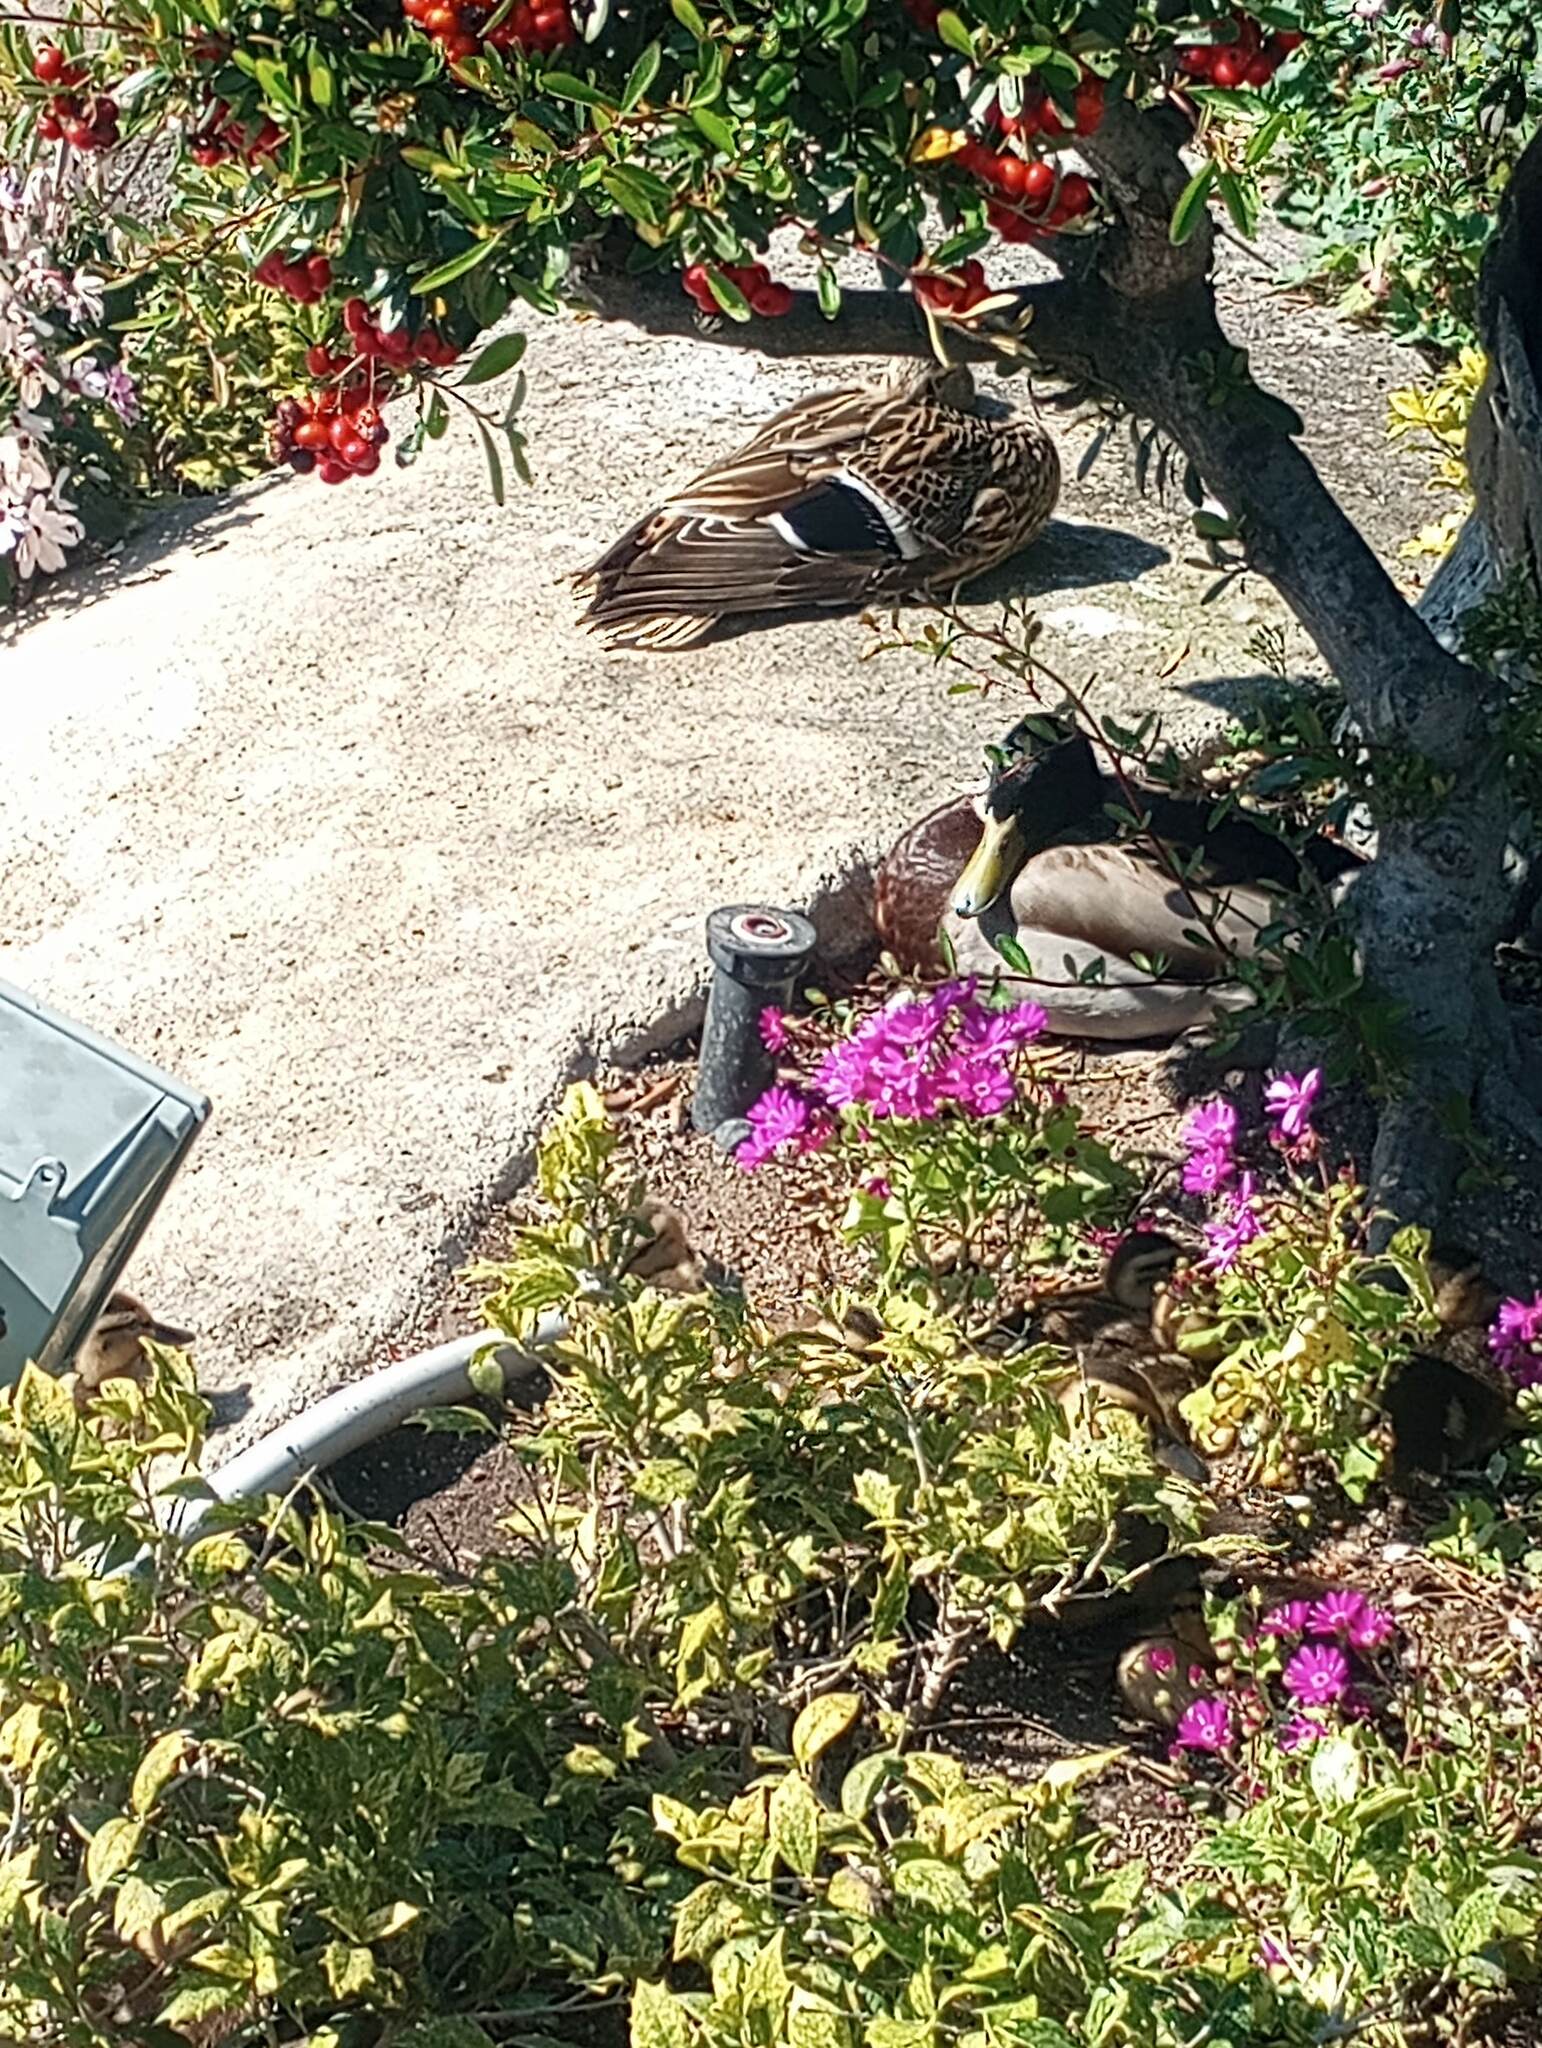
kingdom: Animalia
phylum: Chordata
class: Aves
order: Anseriformes
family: Anatidae
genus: Anas
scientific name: Anas platyrhynchos
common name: Mallard
